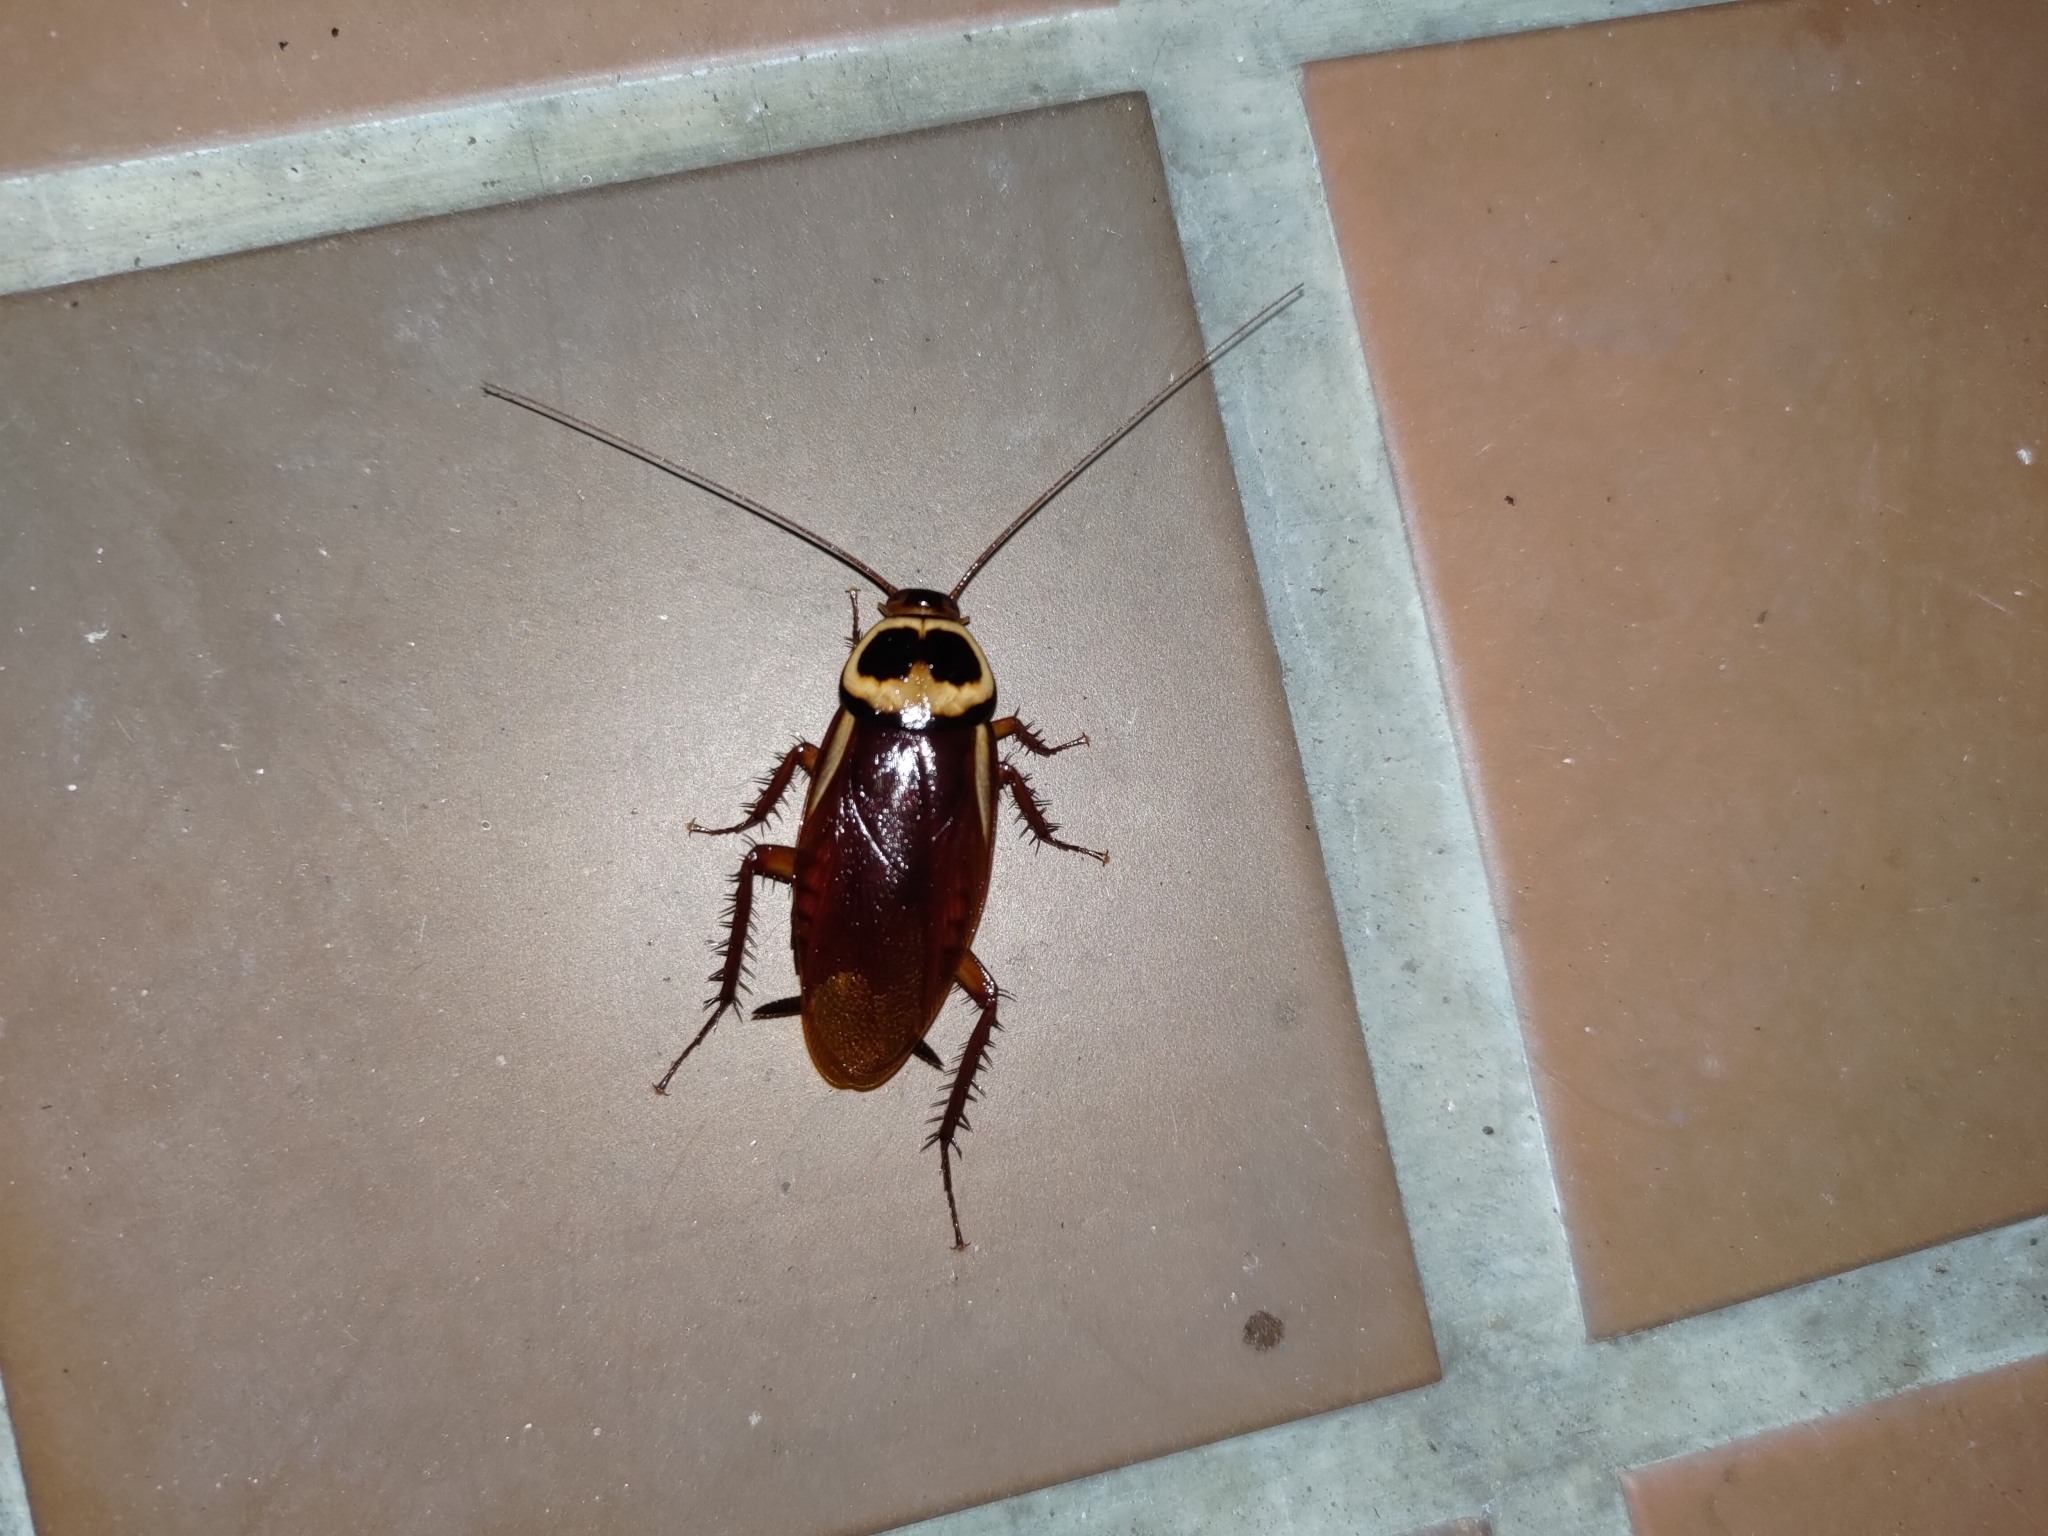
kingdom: Animalia
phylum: Arthropoda
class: Insecta
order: Blattodea
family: Blattidae
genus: Periplaneta
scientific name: Periplaneta australasiae
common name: Australian cockroach
